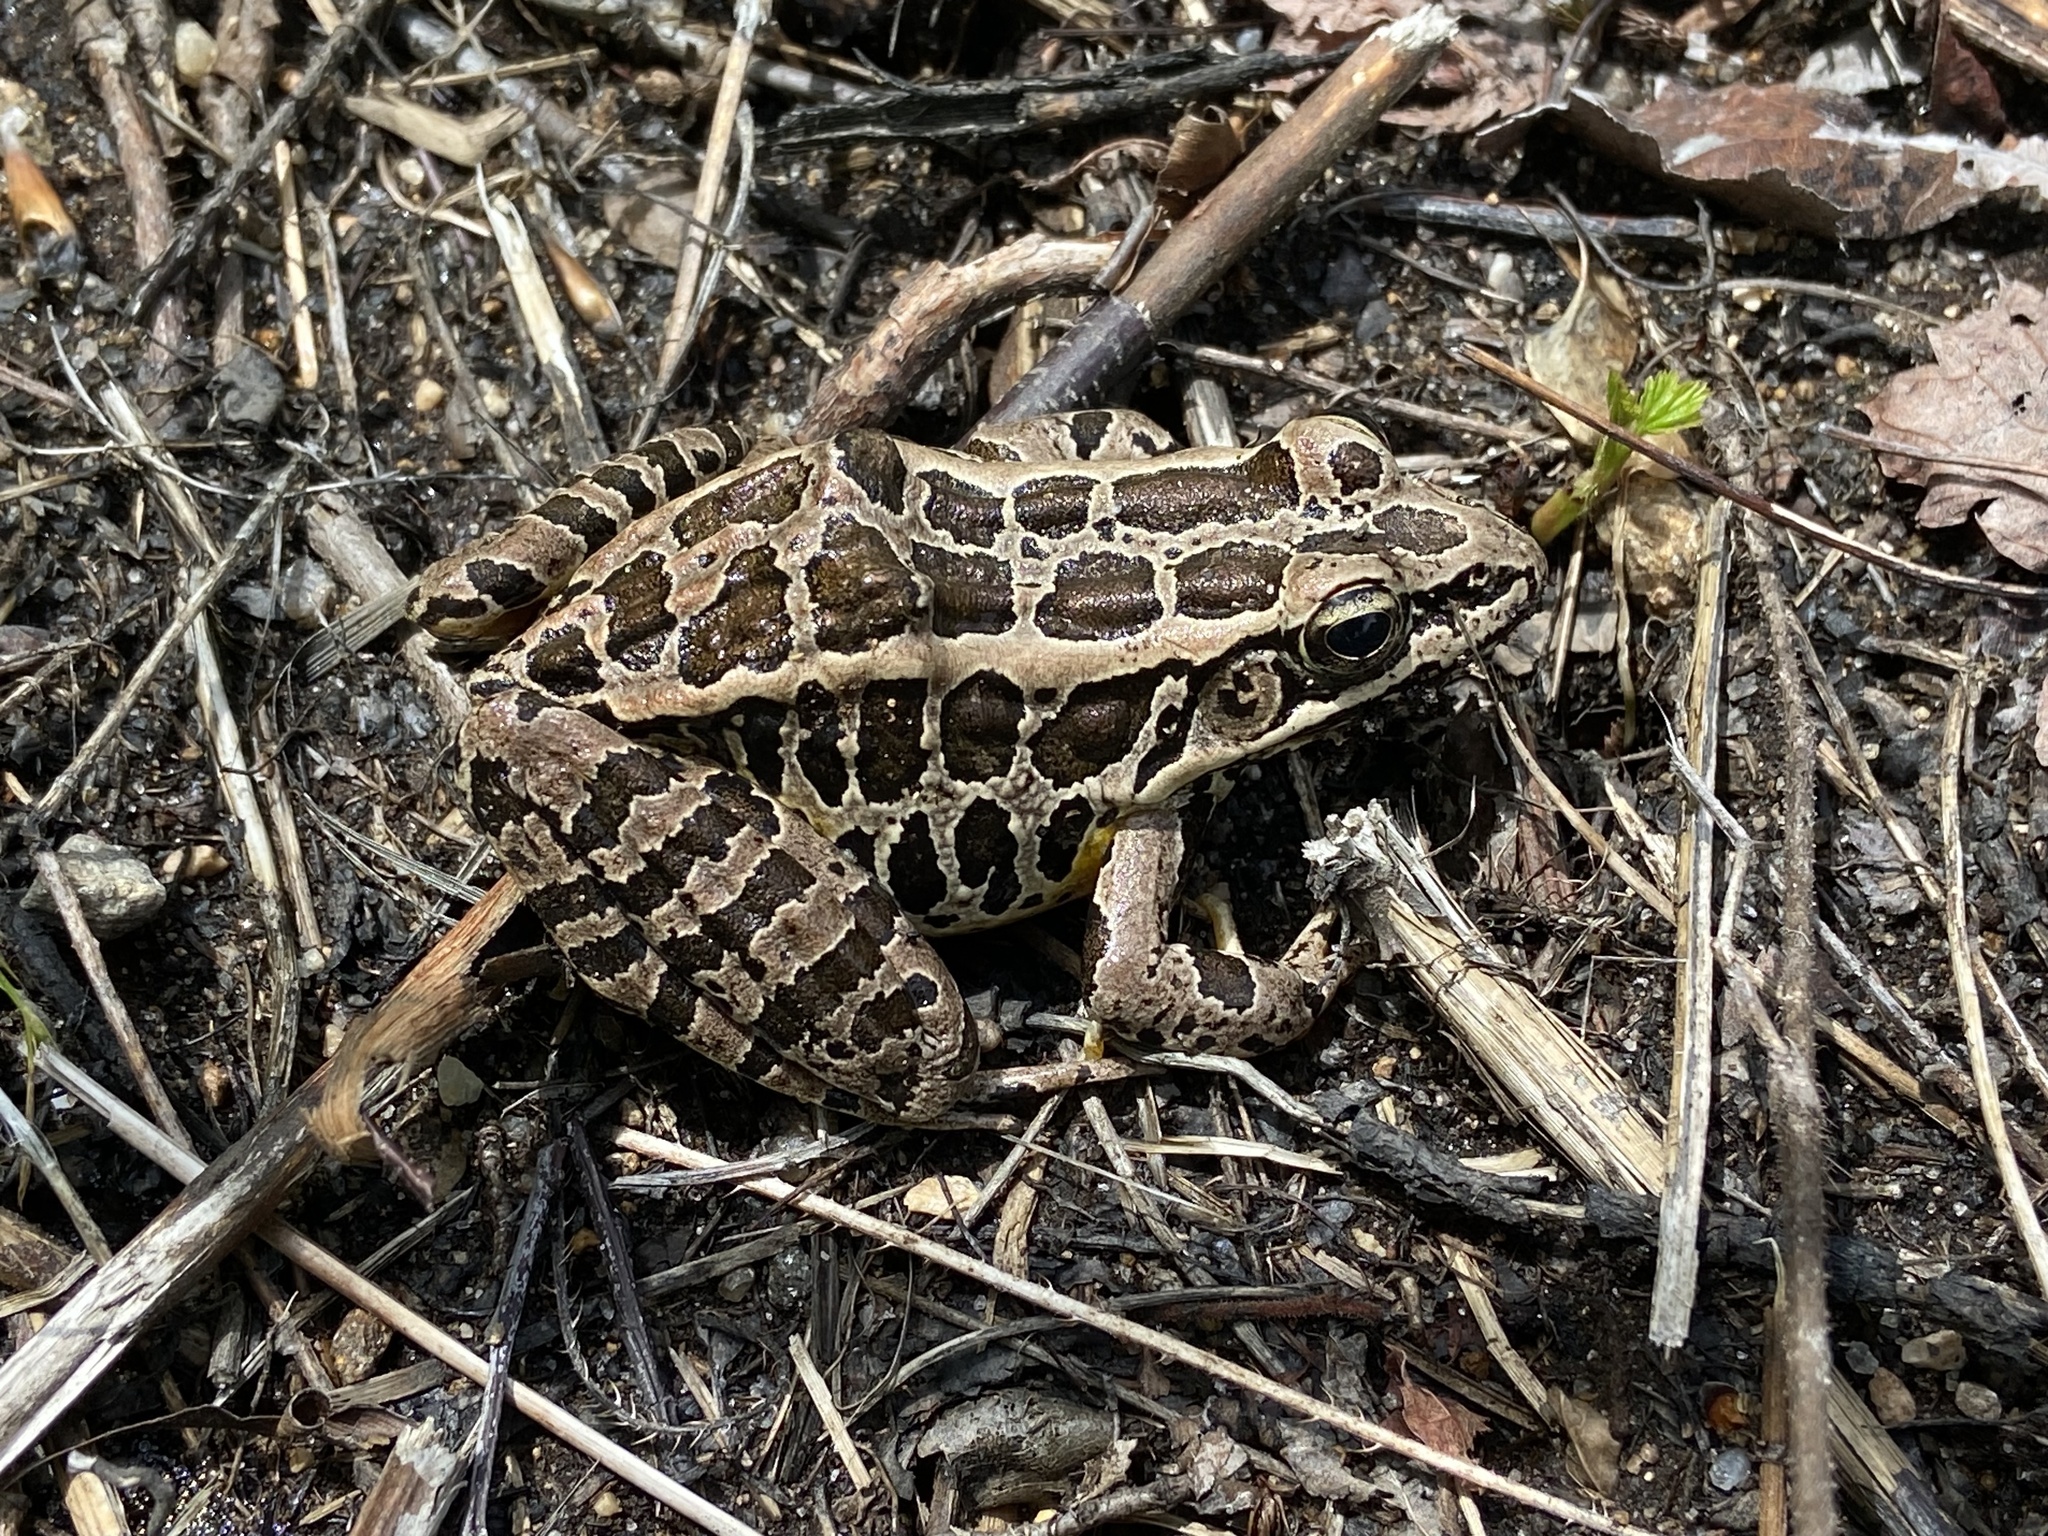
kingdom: Animalia
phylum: Chordata
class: Amphibia
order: Anura
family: Ranidae
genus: Lithobates
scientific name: Lithobates palustris
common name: Pickerel frog
